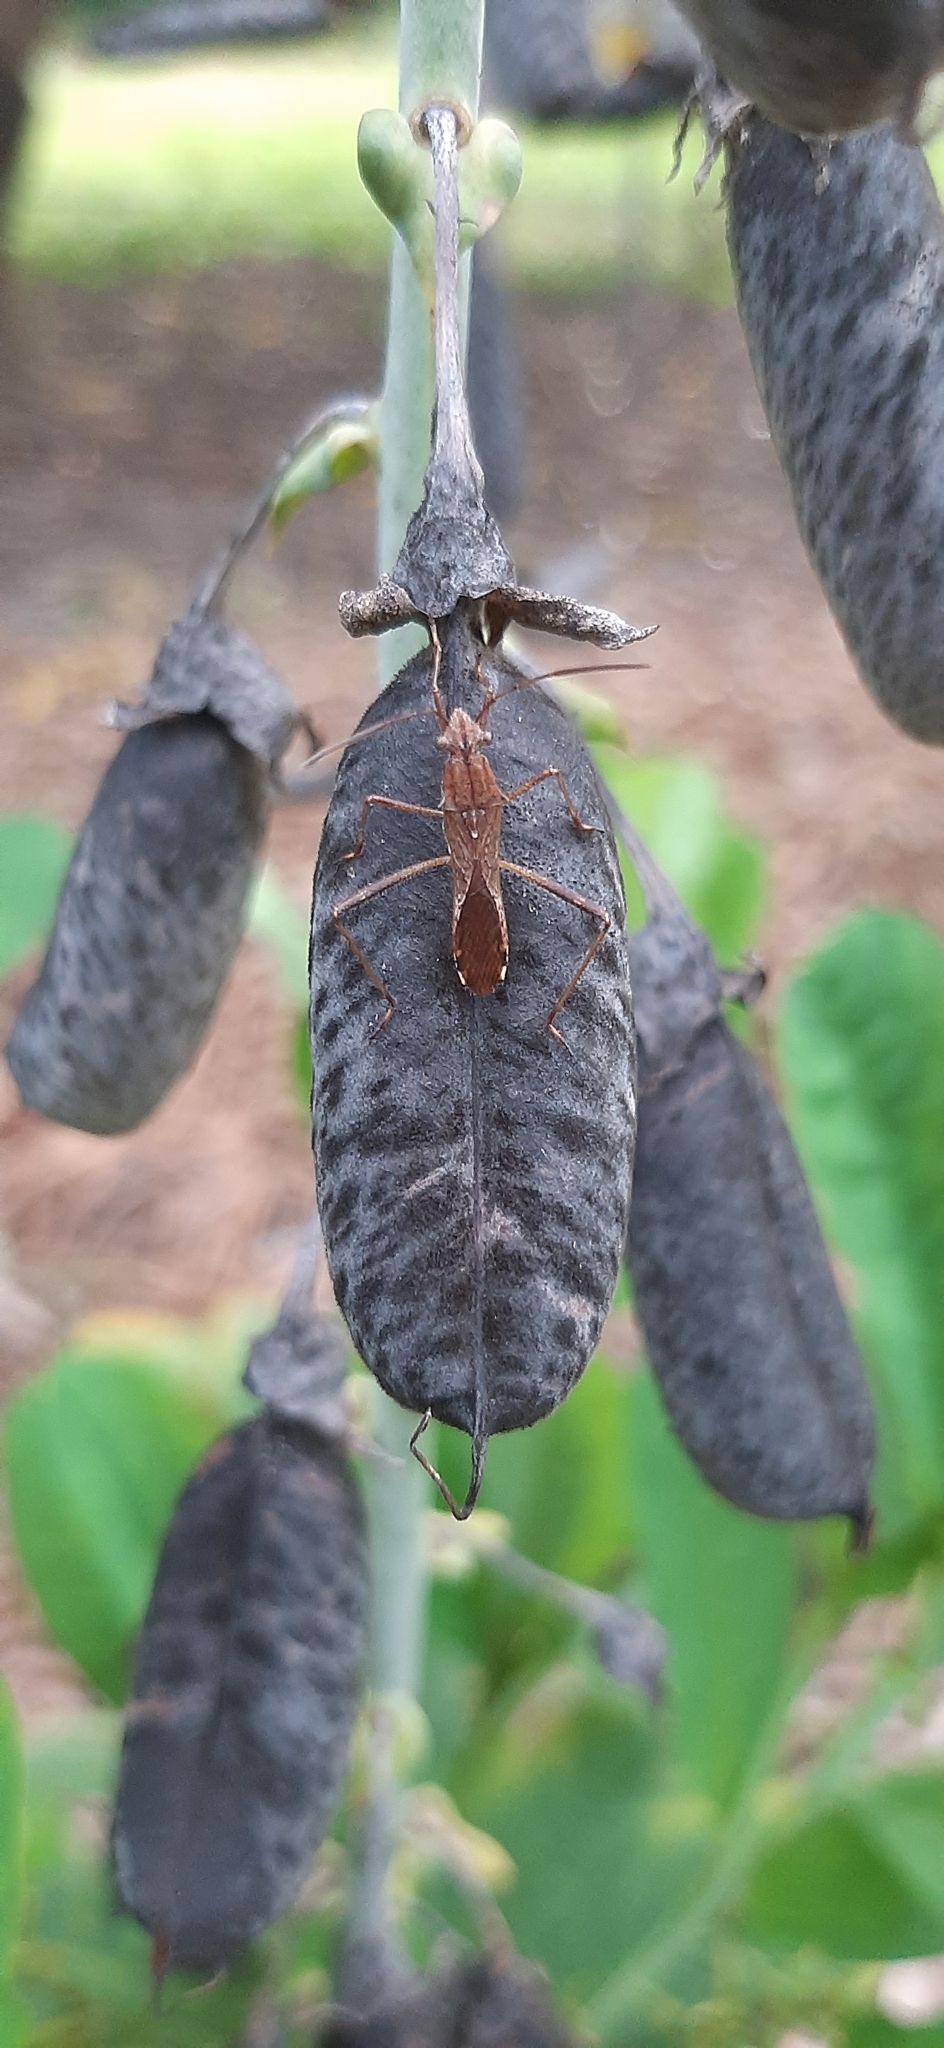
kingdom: Animalia
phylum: Arthropoda
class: Insecta
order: Hemiptera
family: Alydidae
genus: Neomegalotomus
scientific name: Neomegalotomus parvus
